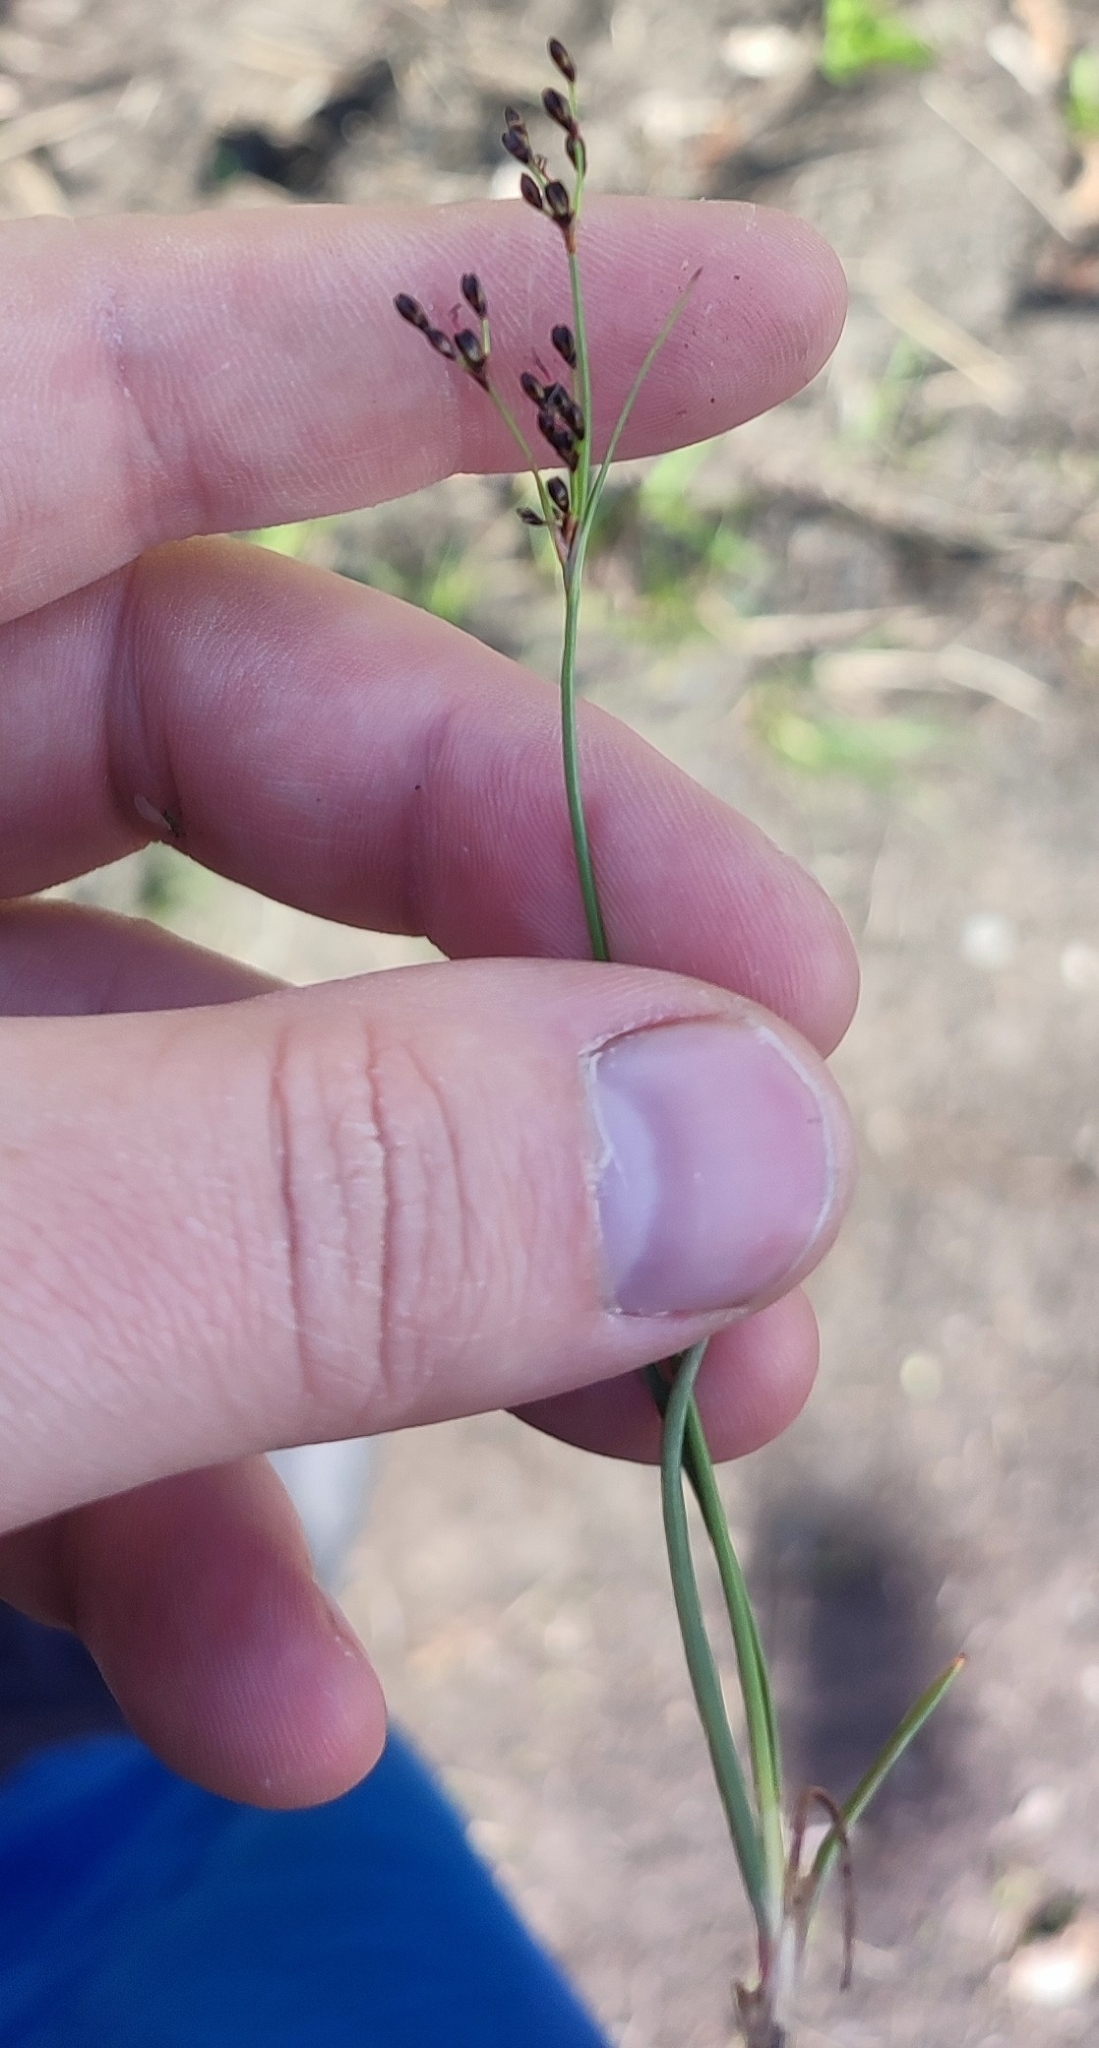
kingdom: Plantae
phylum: Tracheophyta
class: Liliopsida
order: Poales
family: Juncaceae
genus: Juncus
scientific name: Juncus gerardi
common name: Saltmarsh rush
